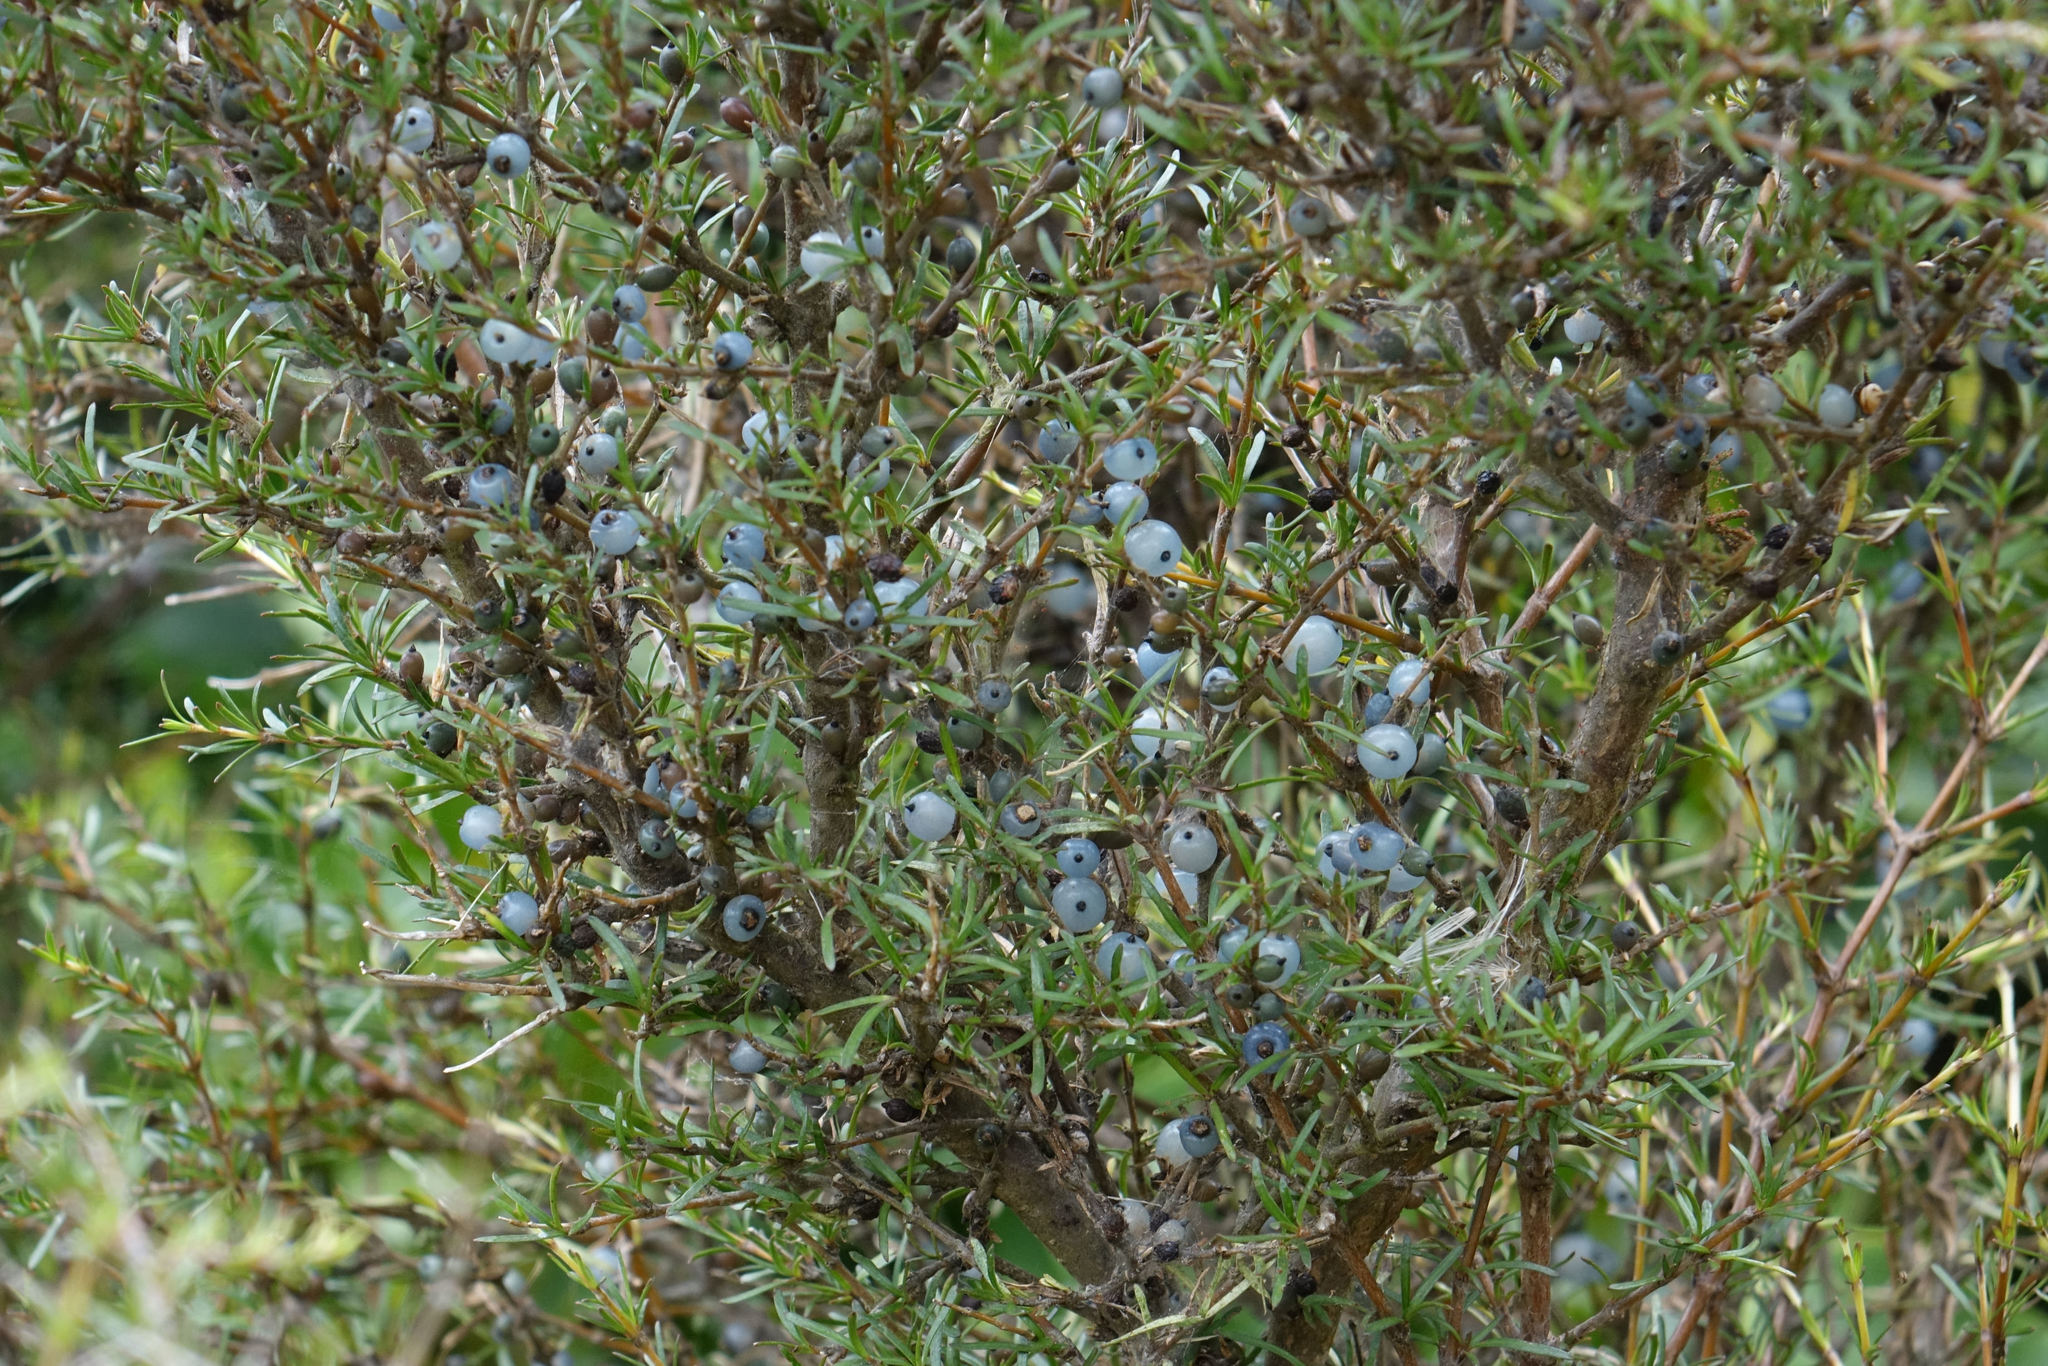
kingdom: Plantae
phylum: Tracheophyta
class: Magnoliopsida
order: Gentianales
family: Rubiaceae
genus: Coprosma
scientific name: Coprosma rugosa
